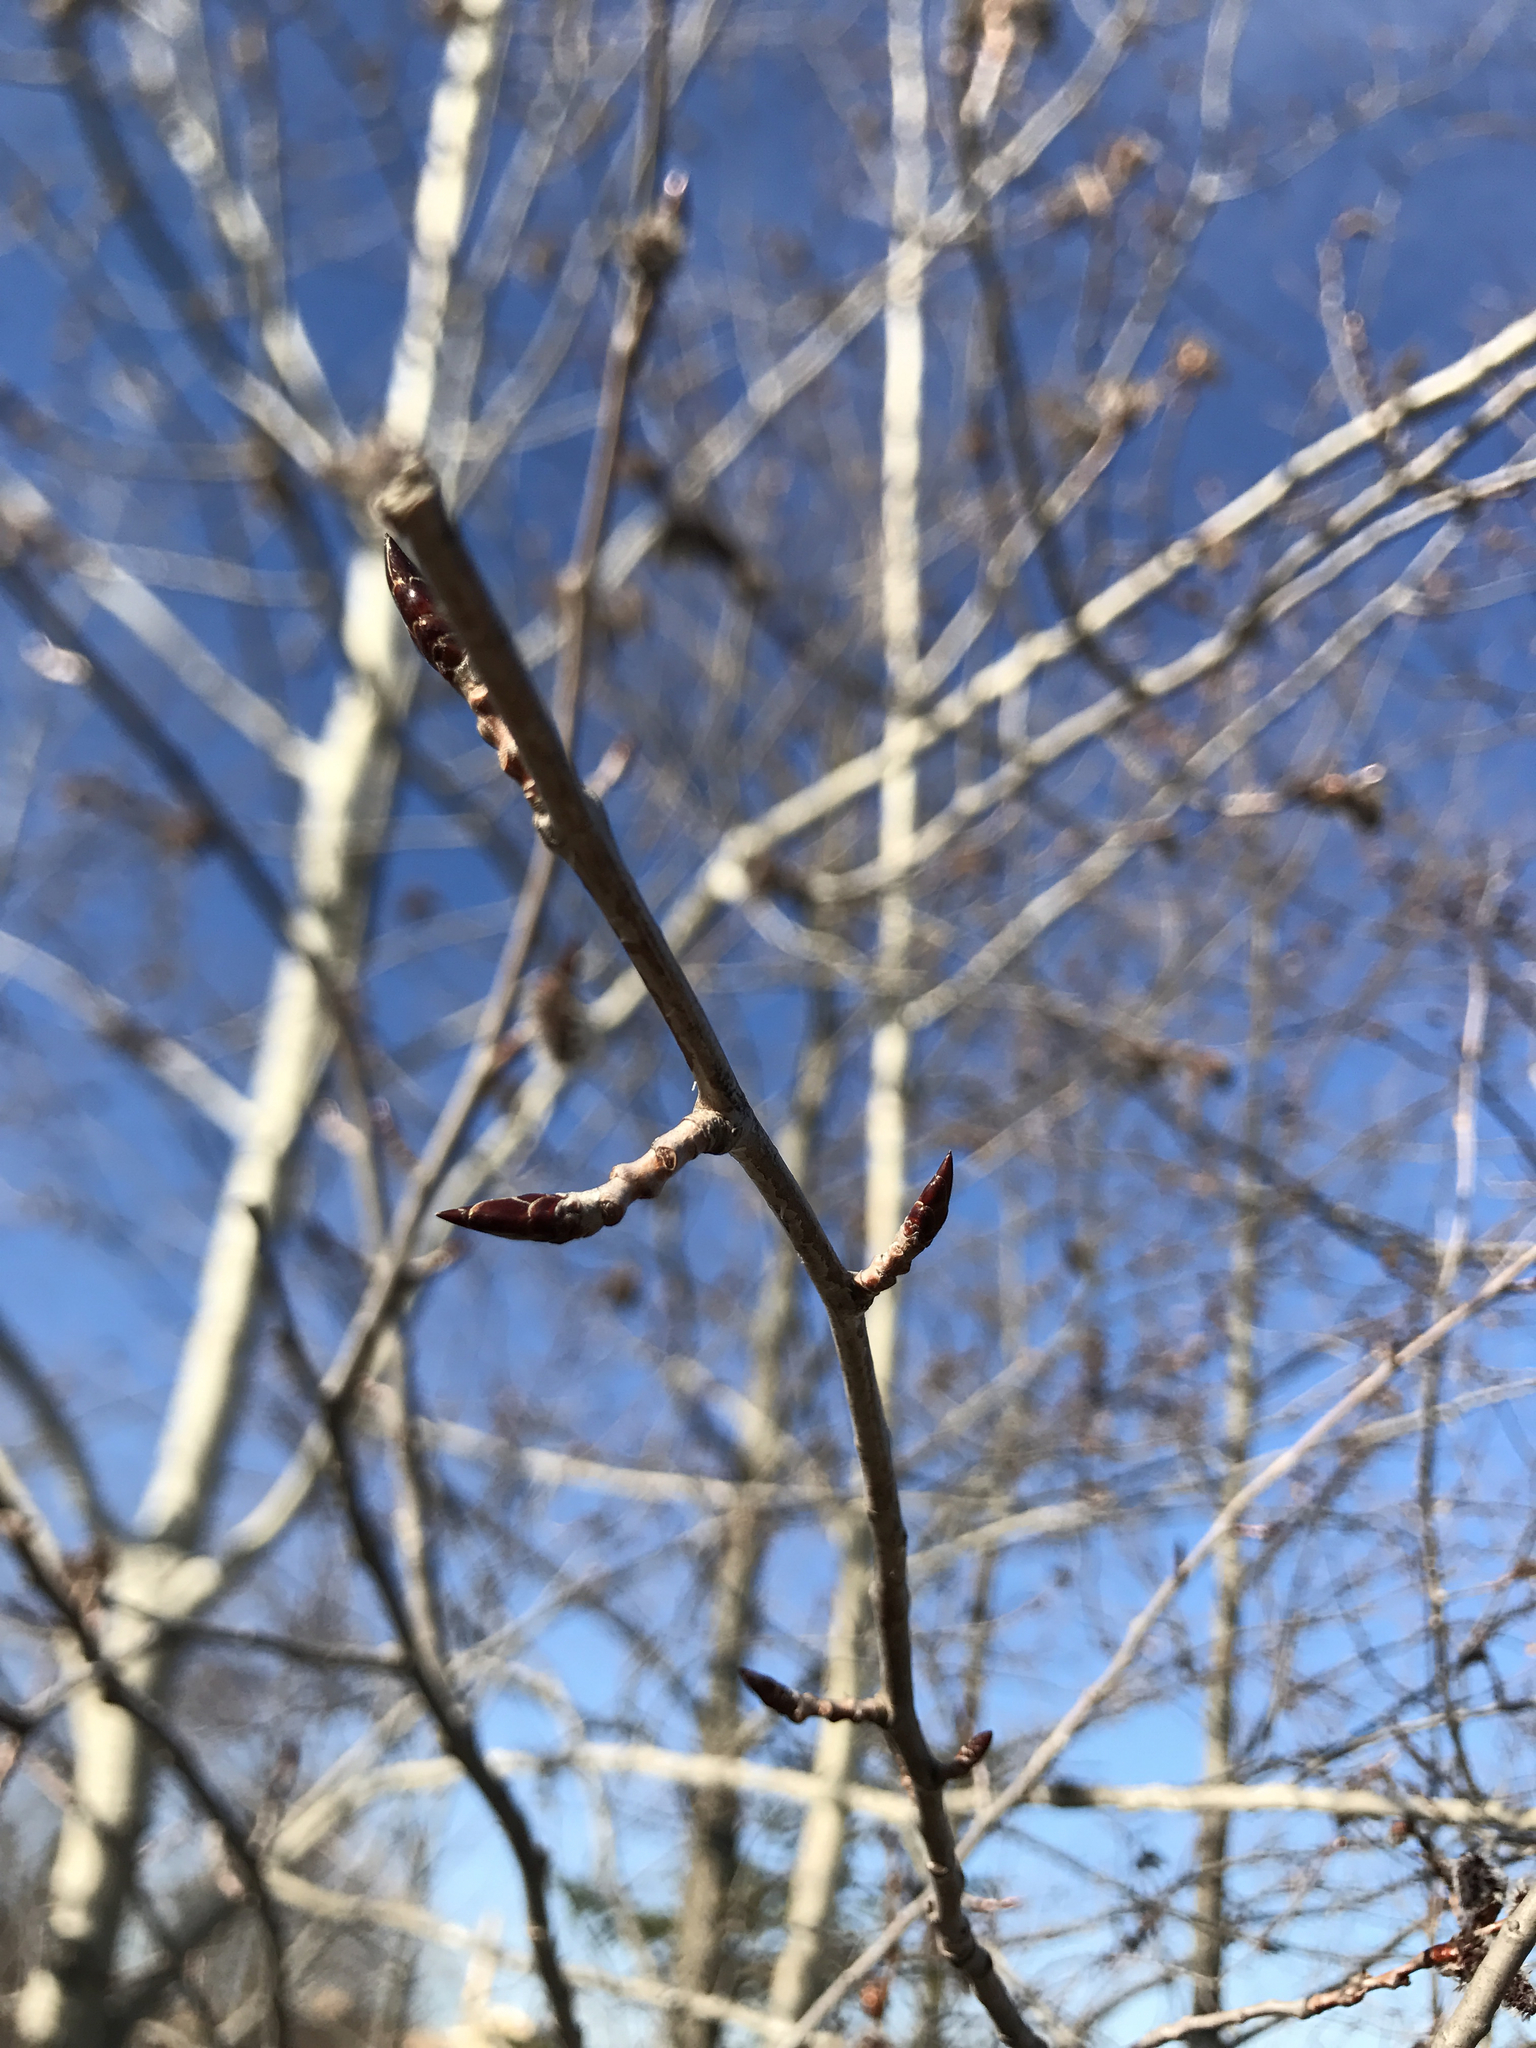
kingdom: Plantae
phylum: Tracheophyta
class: Magnoliopsida
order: Malpighiales
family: Salicaceae
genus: Populus
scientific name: Populus tremuloides
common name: Quaking aspen
